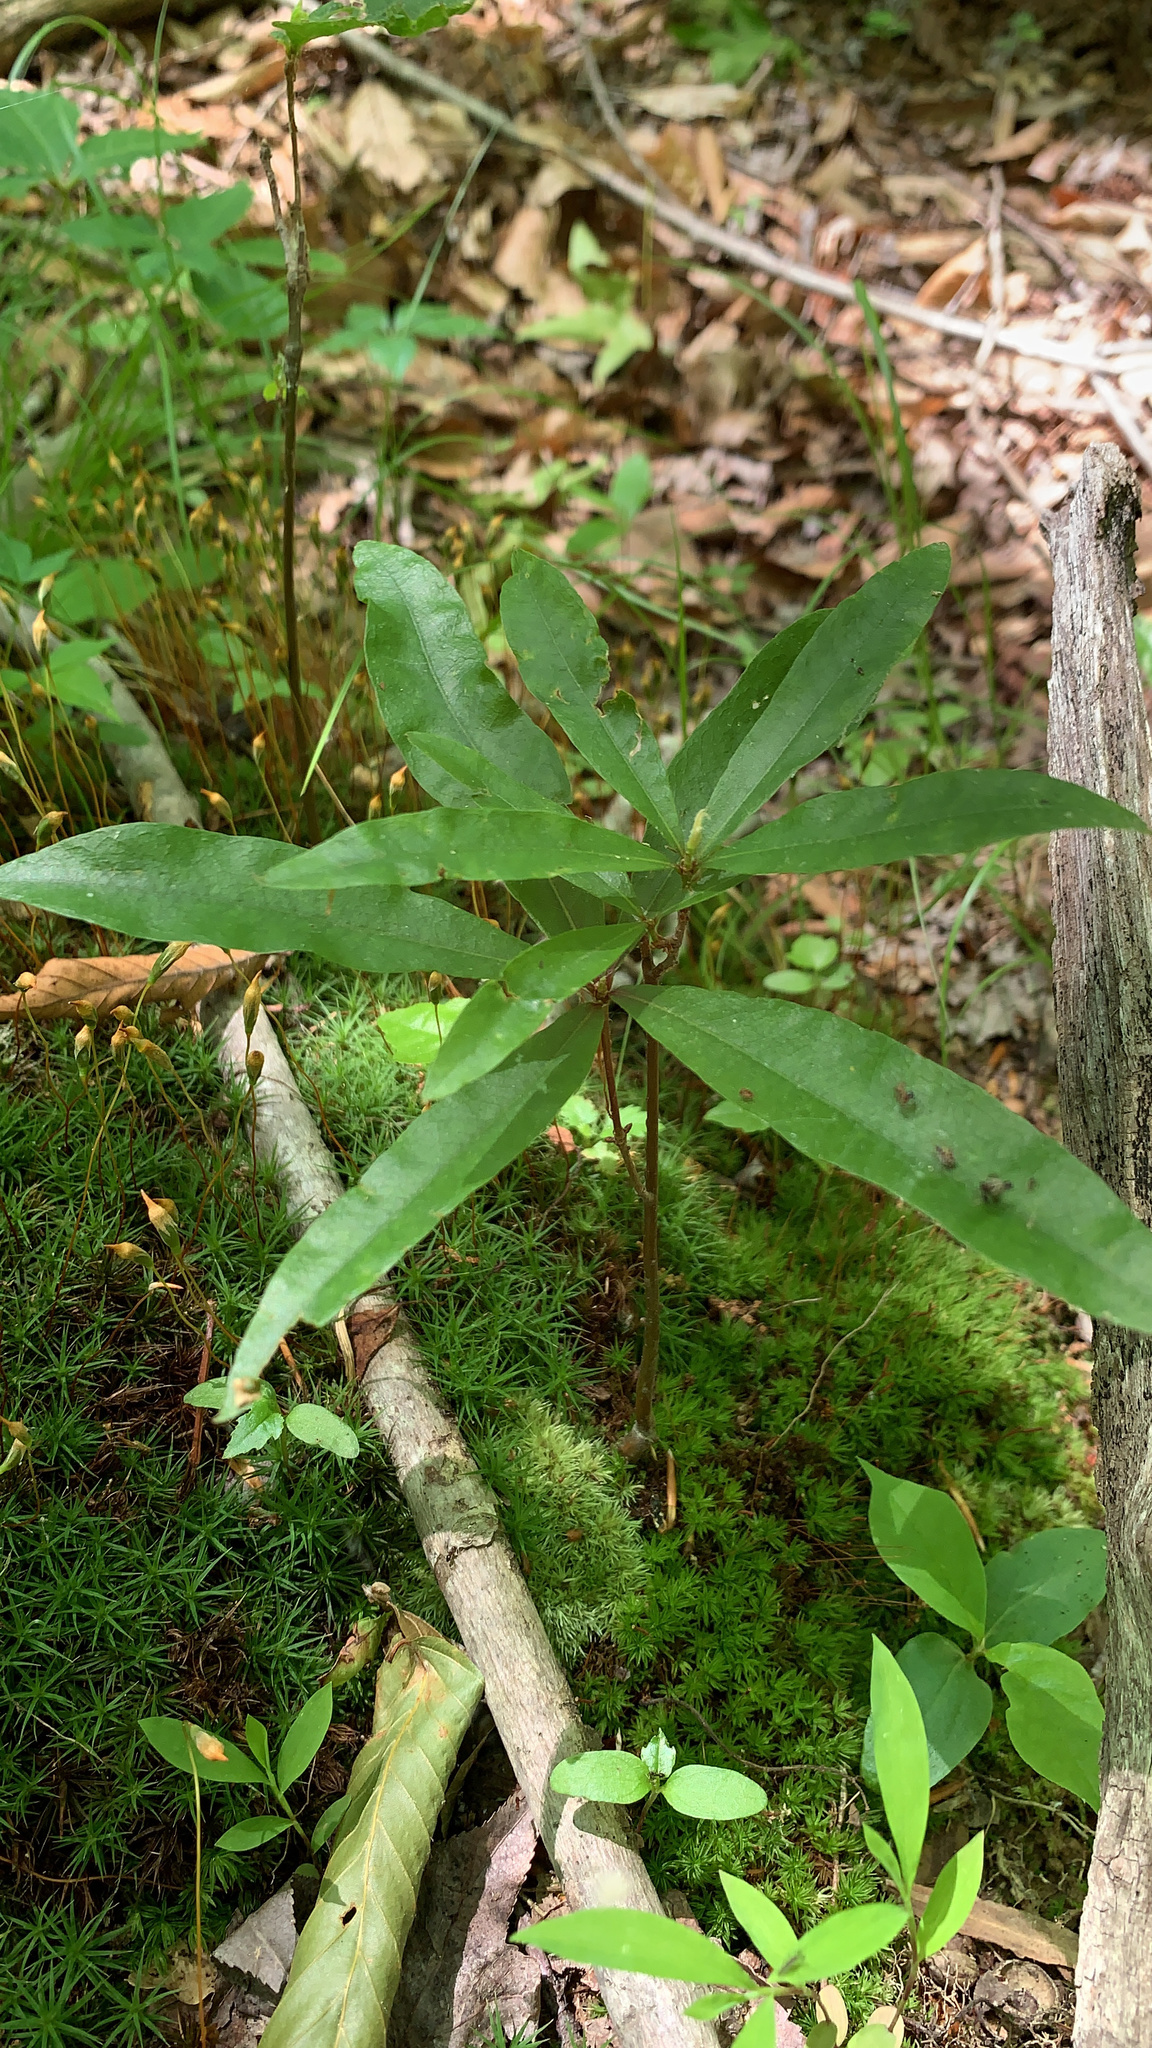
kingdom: Plantae
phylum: Tracheophyta
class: Magnoliopsida
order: Fagales
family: Fagaceae
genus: Quercus
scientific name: Quercus phellos
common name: Willow oak
